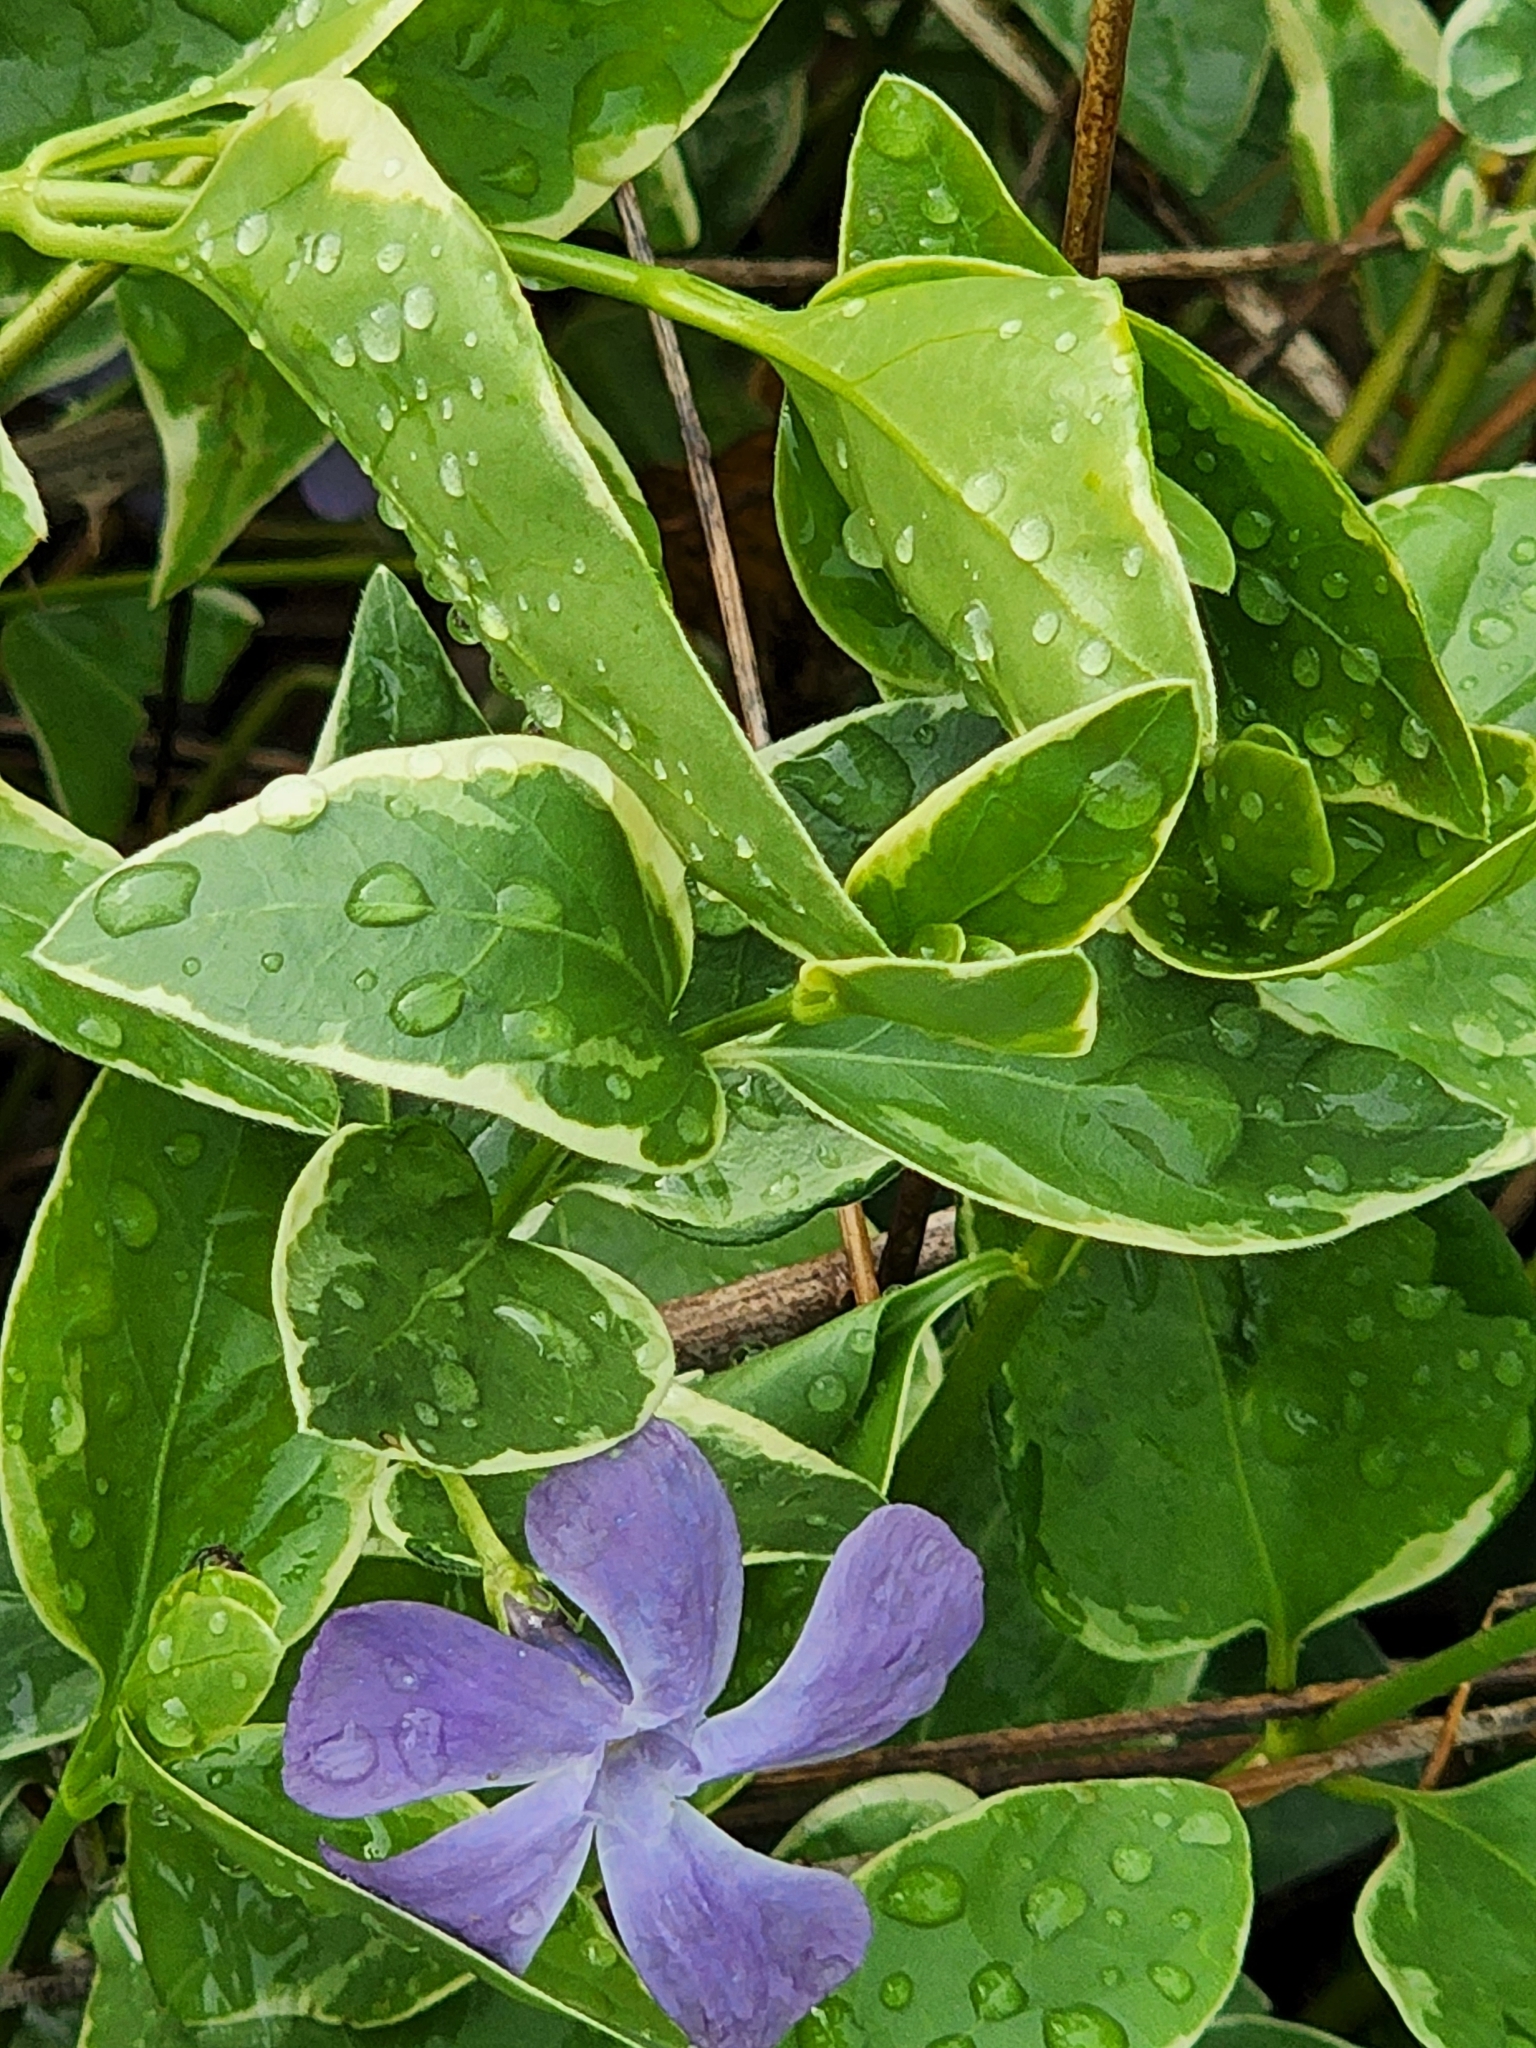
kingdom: Plantae
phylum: Tracheophyta
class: Magnoliopsida
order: Gentianales
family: Apocynaceae
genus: Vinca
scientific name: Vinca major
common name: Greater periwinkle
